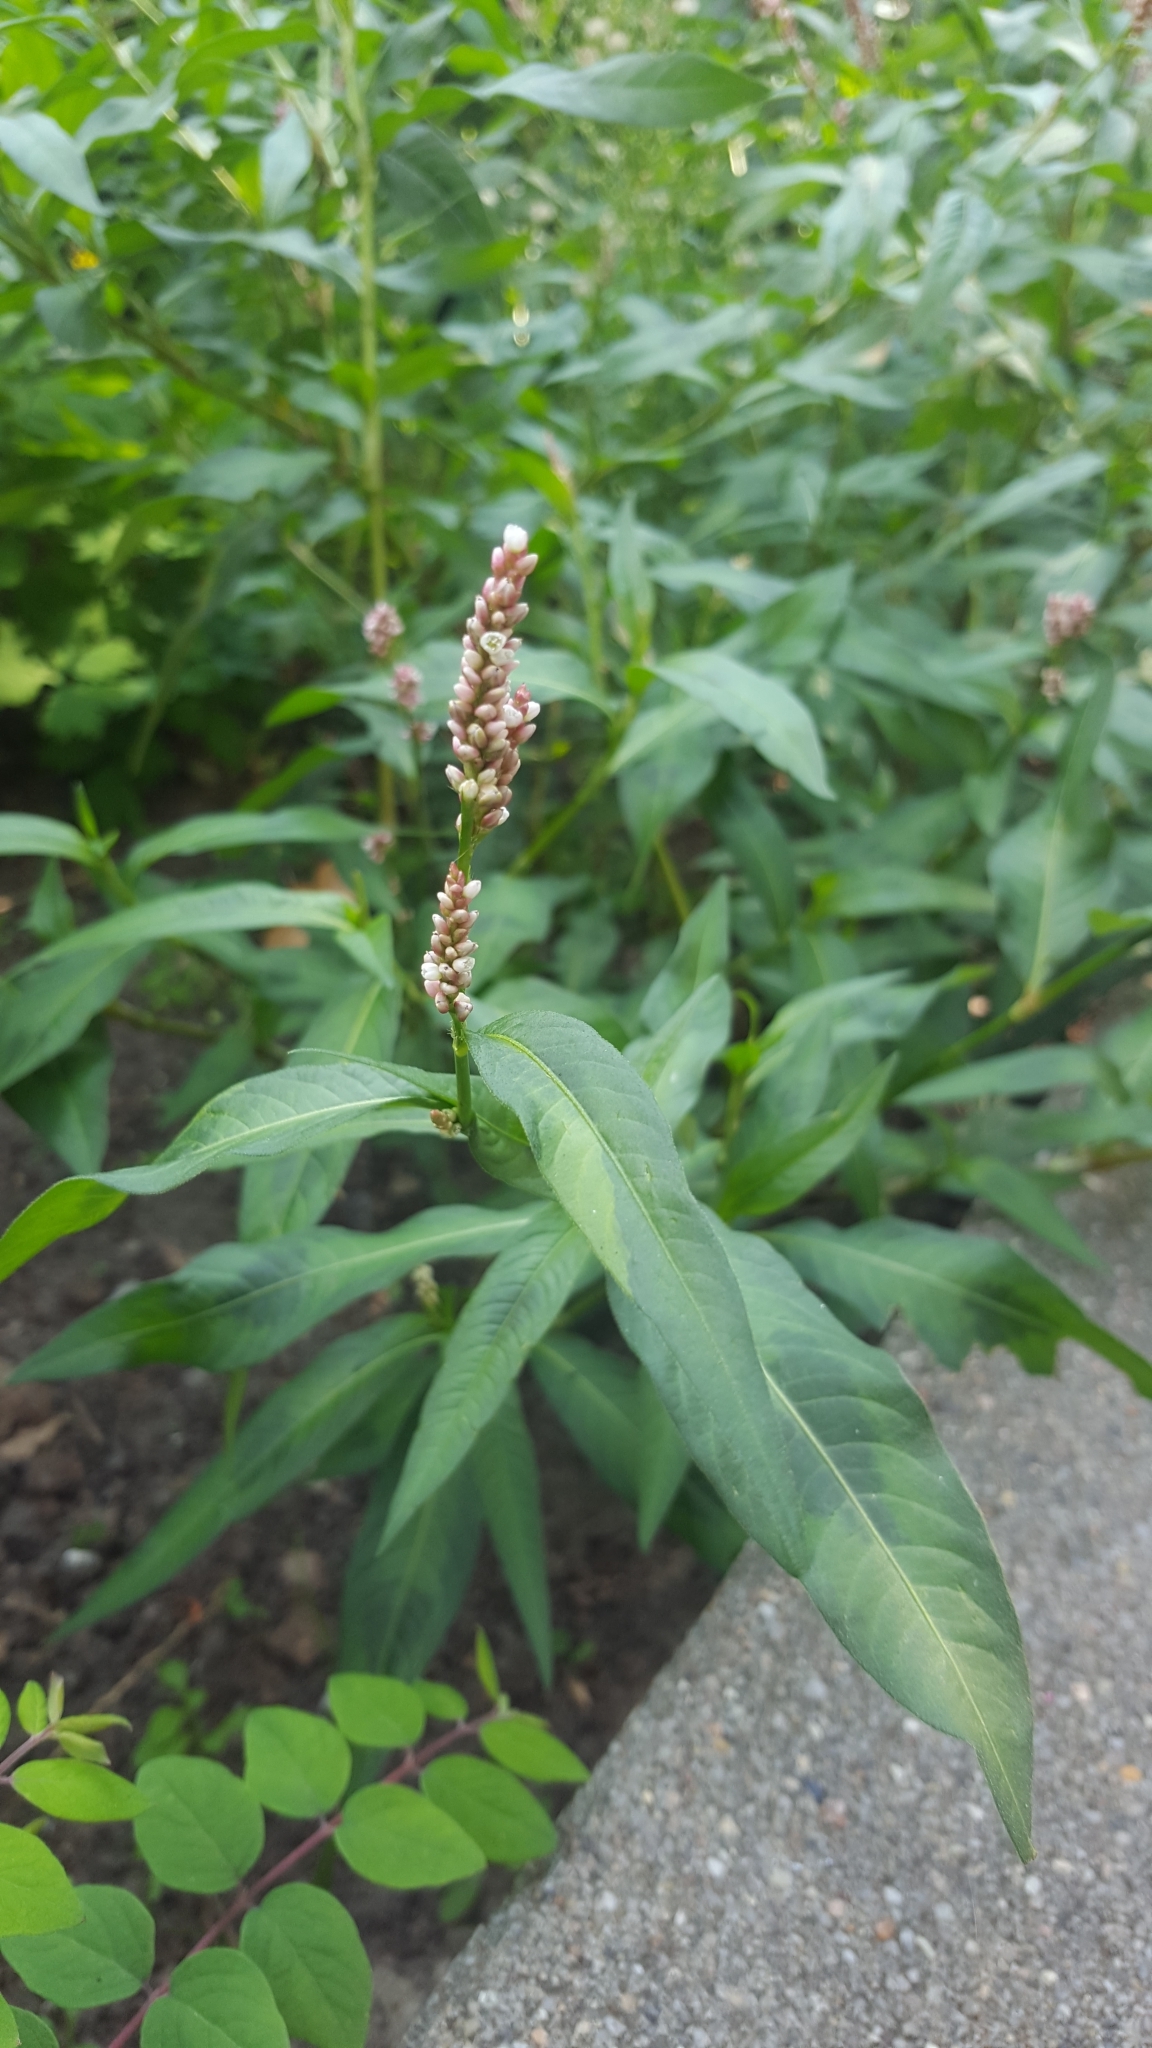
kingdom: Plantae
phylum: Tracheophyta
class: Magnoliopsida
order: Caryophyllales
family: Polygonaceae
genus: Persicaria
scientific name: Persicaria maculosa
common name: Redshank
